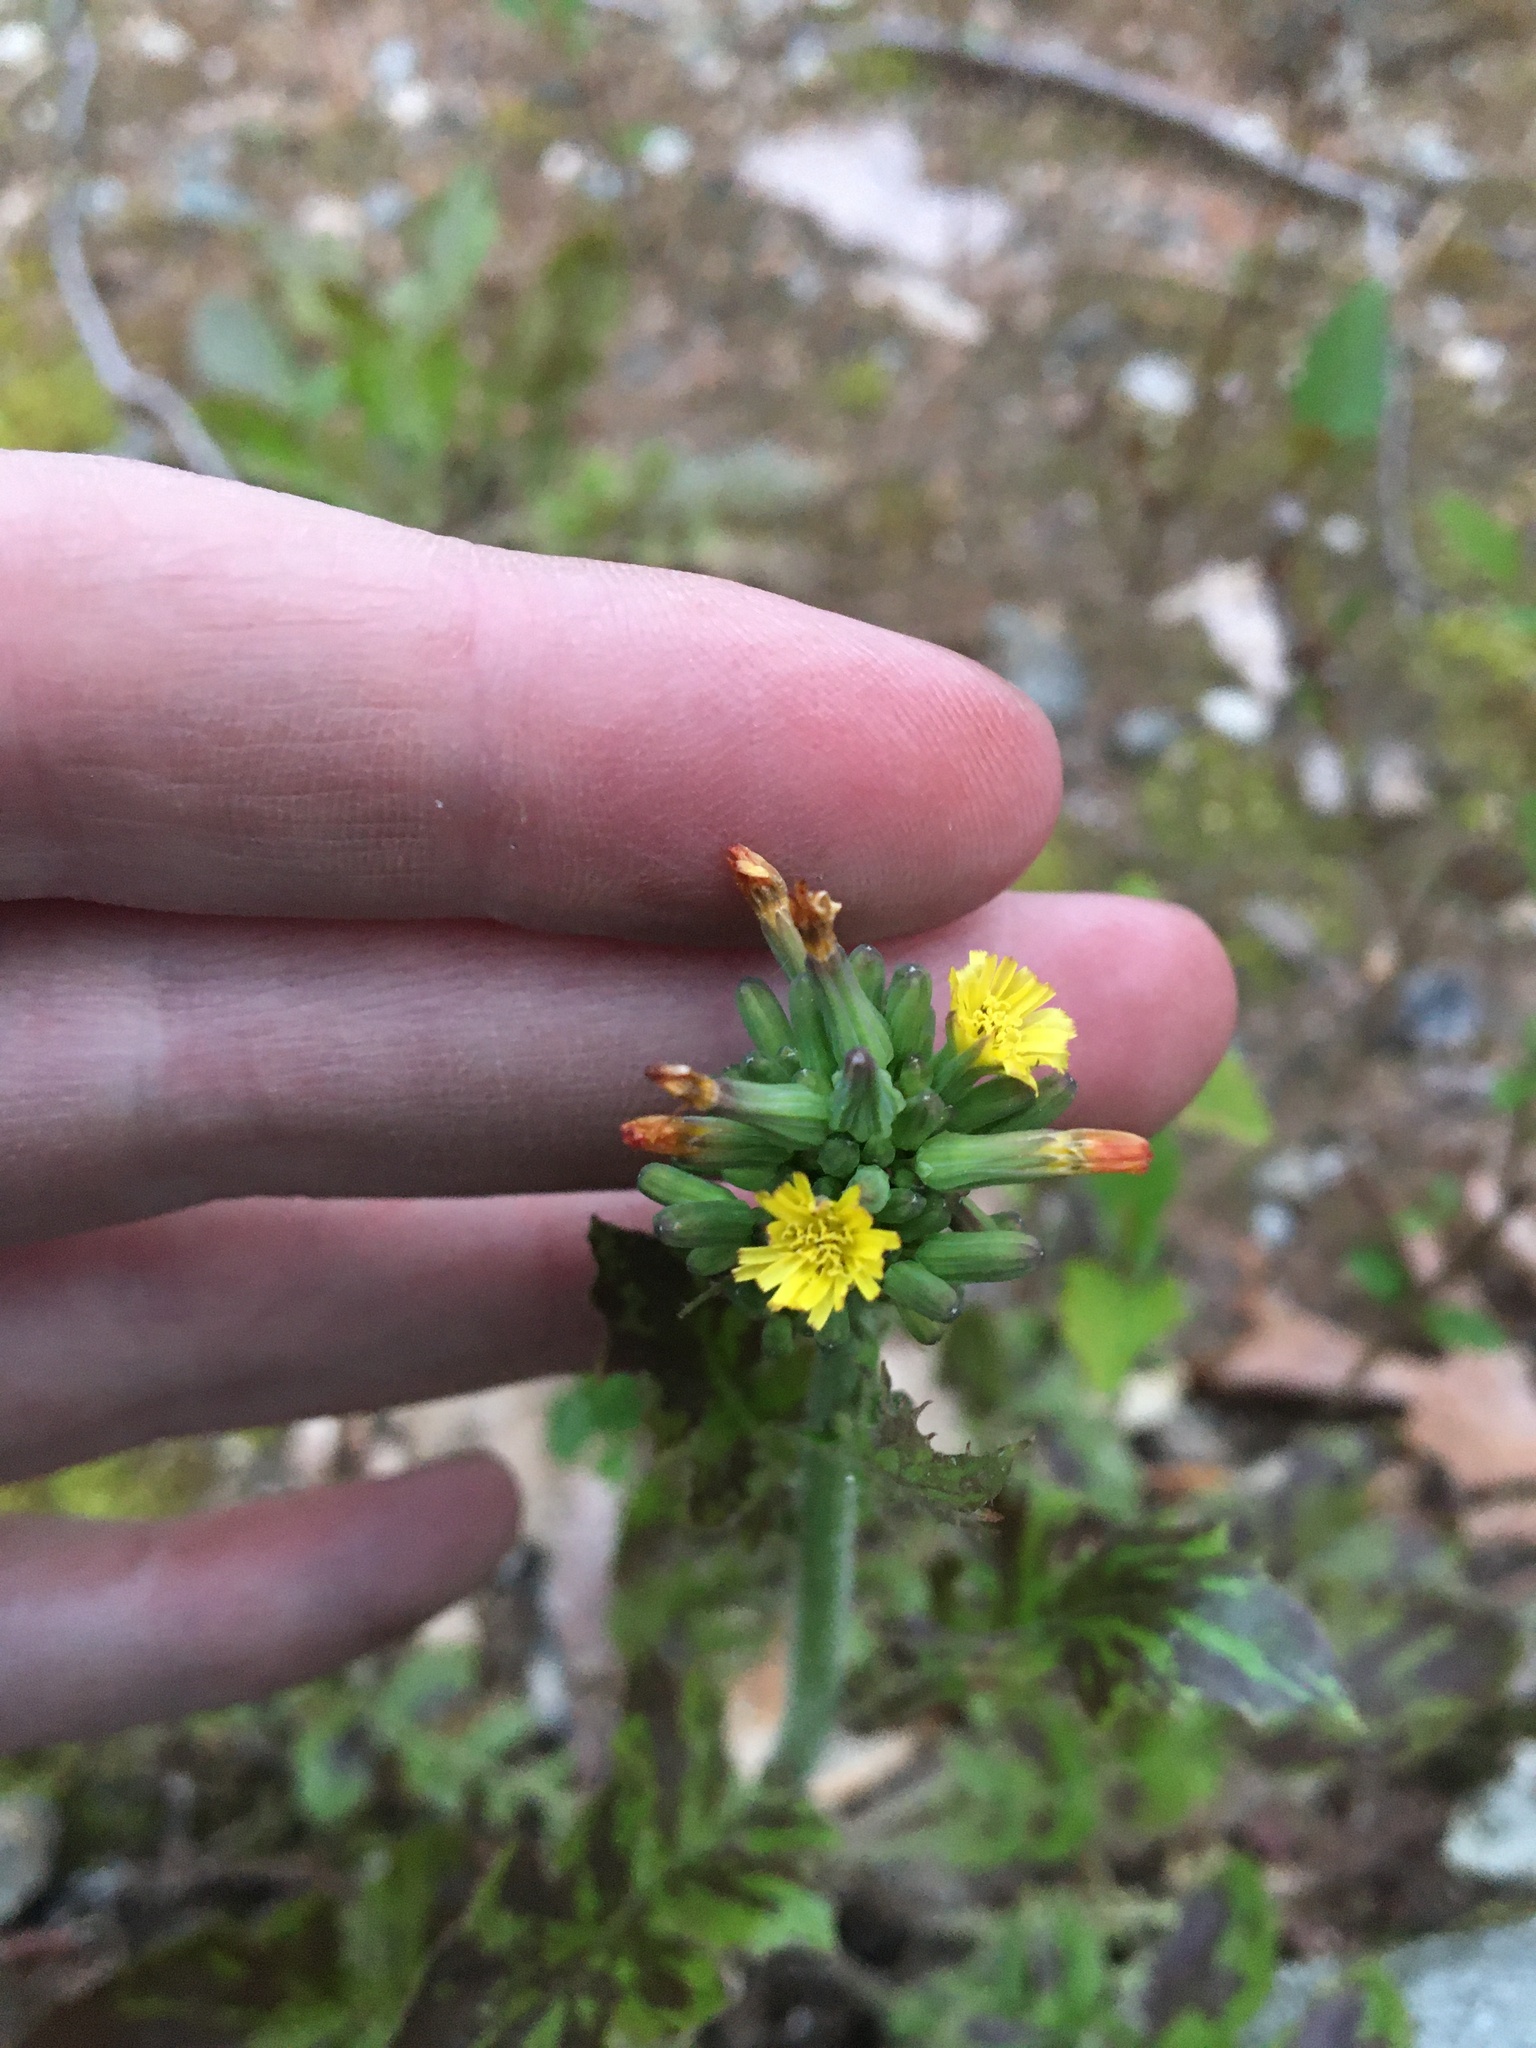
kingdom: Plantae
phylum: Tracheophyta
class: Magnoliopsida
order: Asterales
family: Asteraceae
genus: Youngia
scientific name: Youngia japonica
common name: Oriental false hawksbeard
